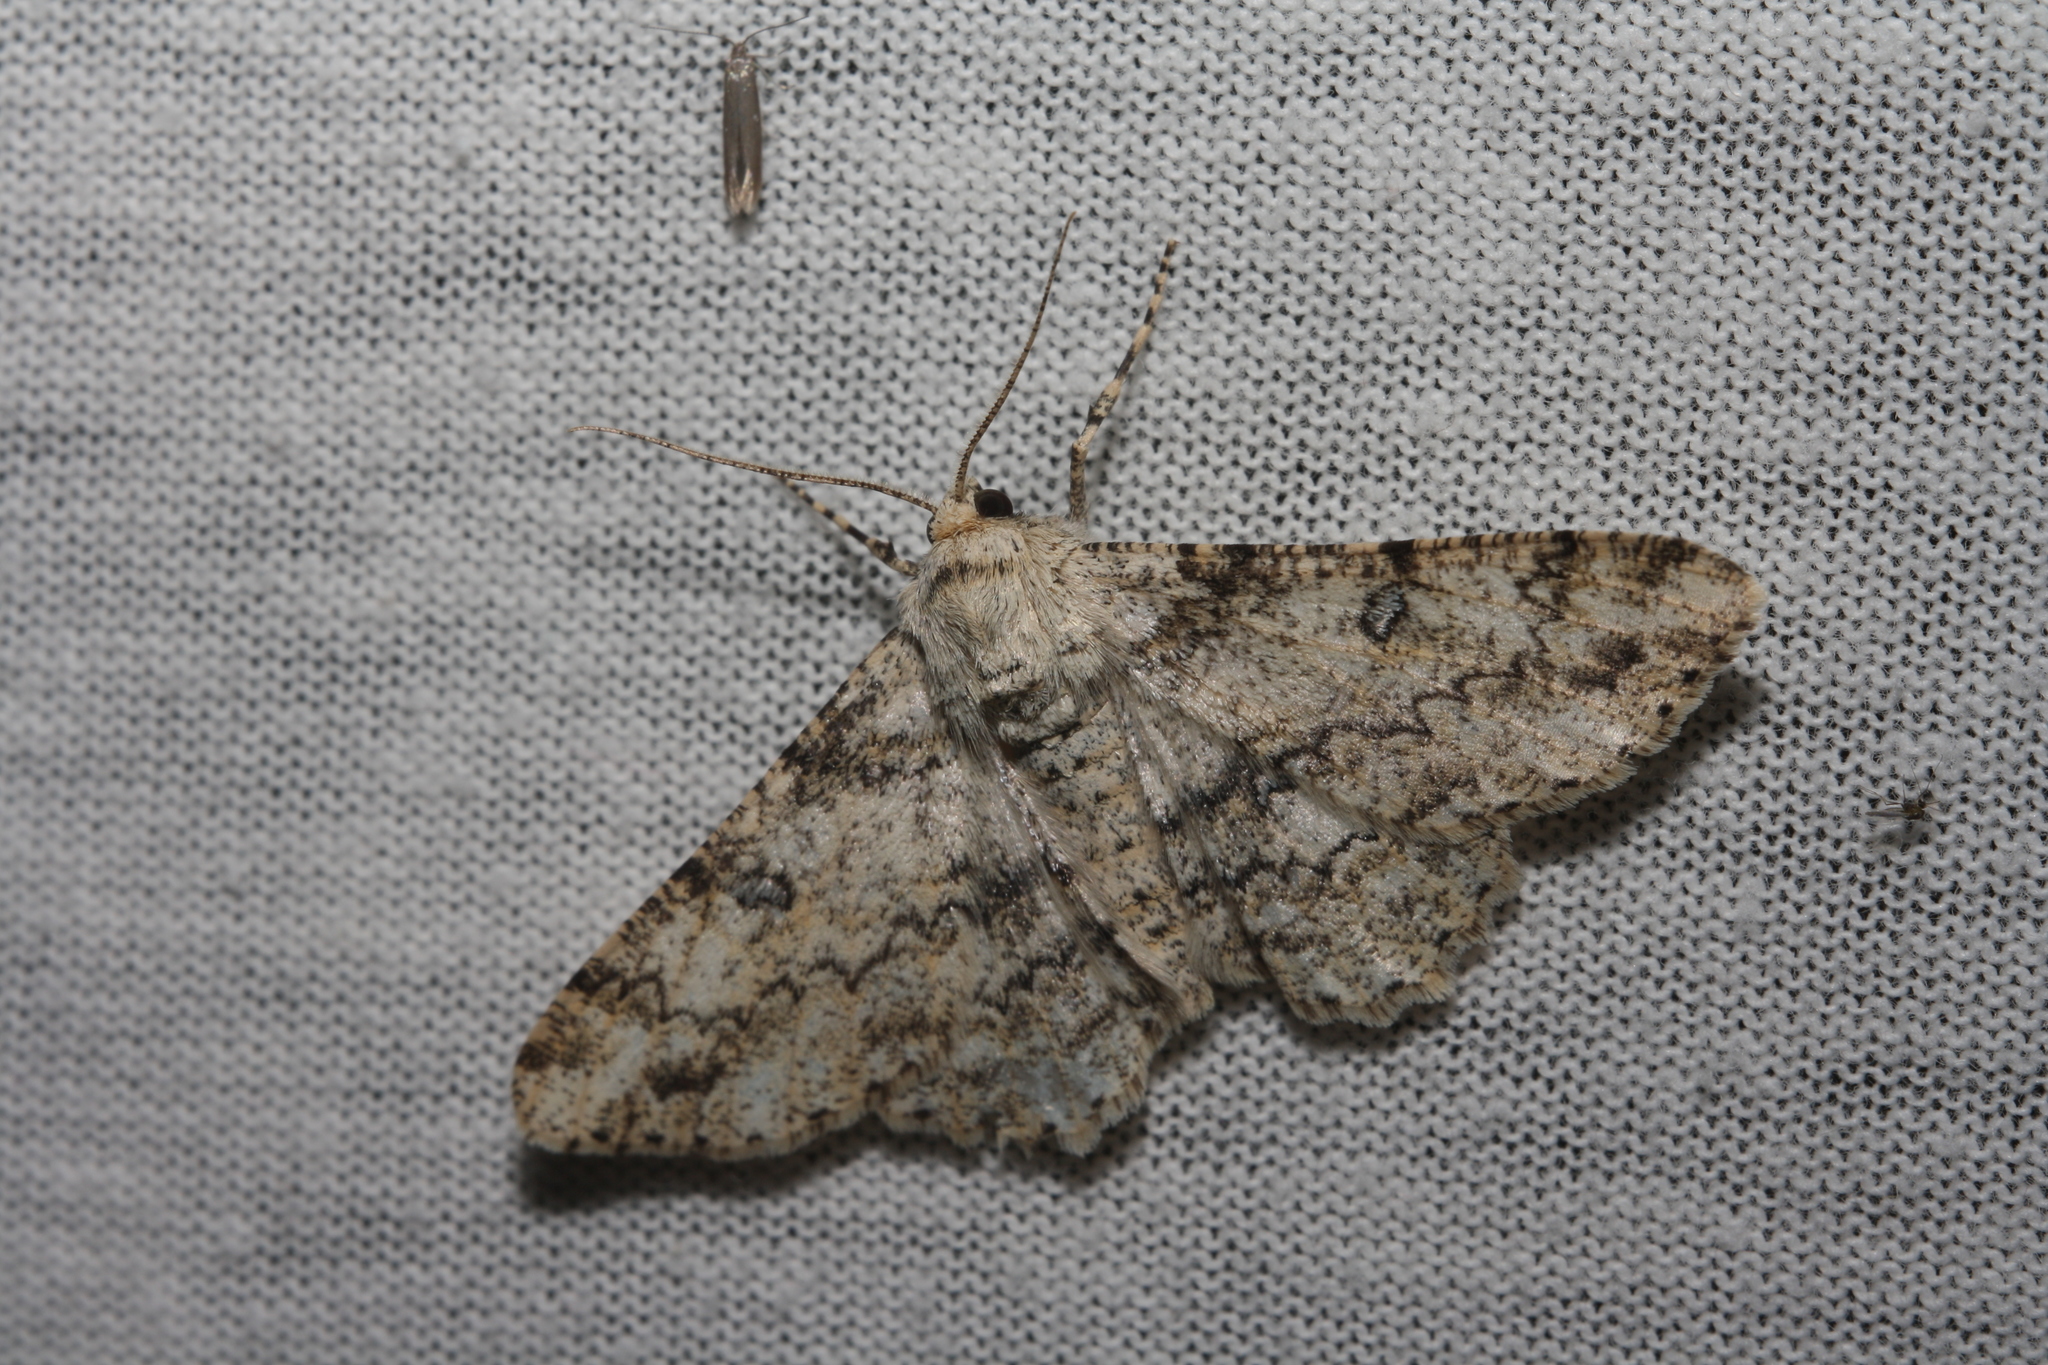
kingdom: Animalia
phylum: Arthropoda
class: Insecta
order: Lepidoptera
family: Geometridae
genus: Ascotis
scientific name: Ascotis selenaria
